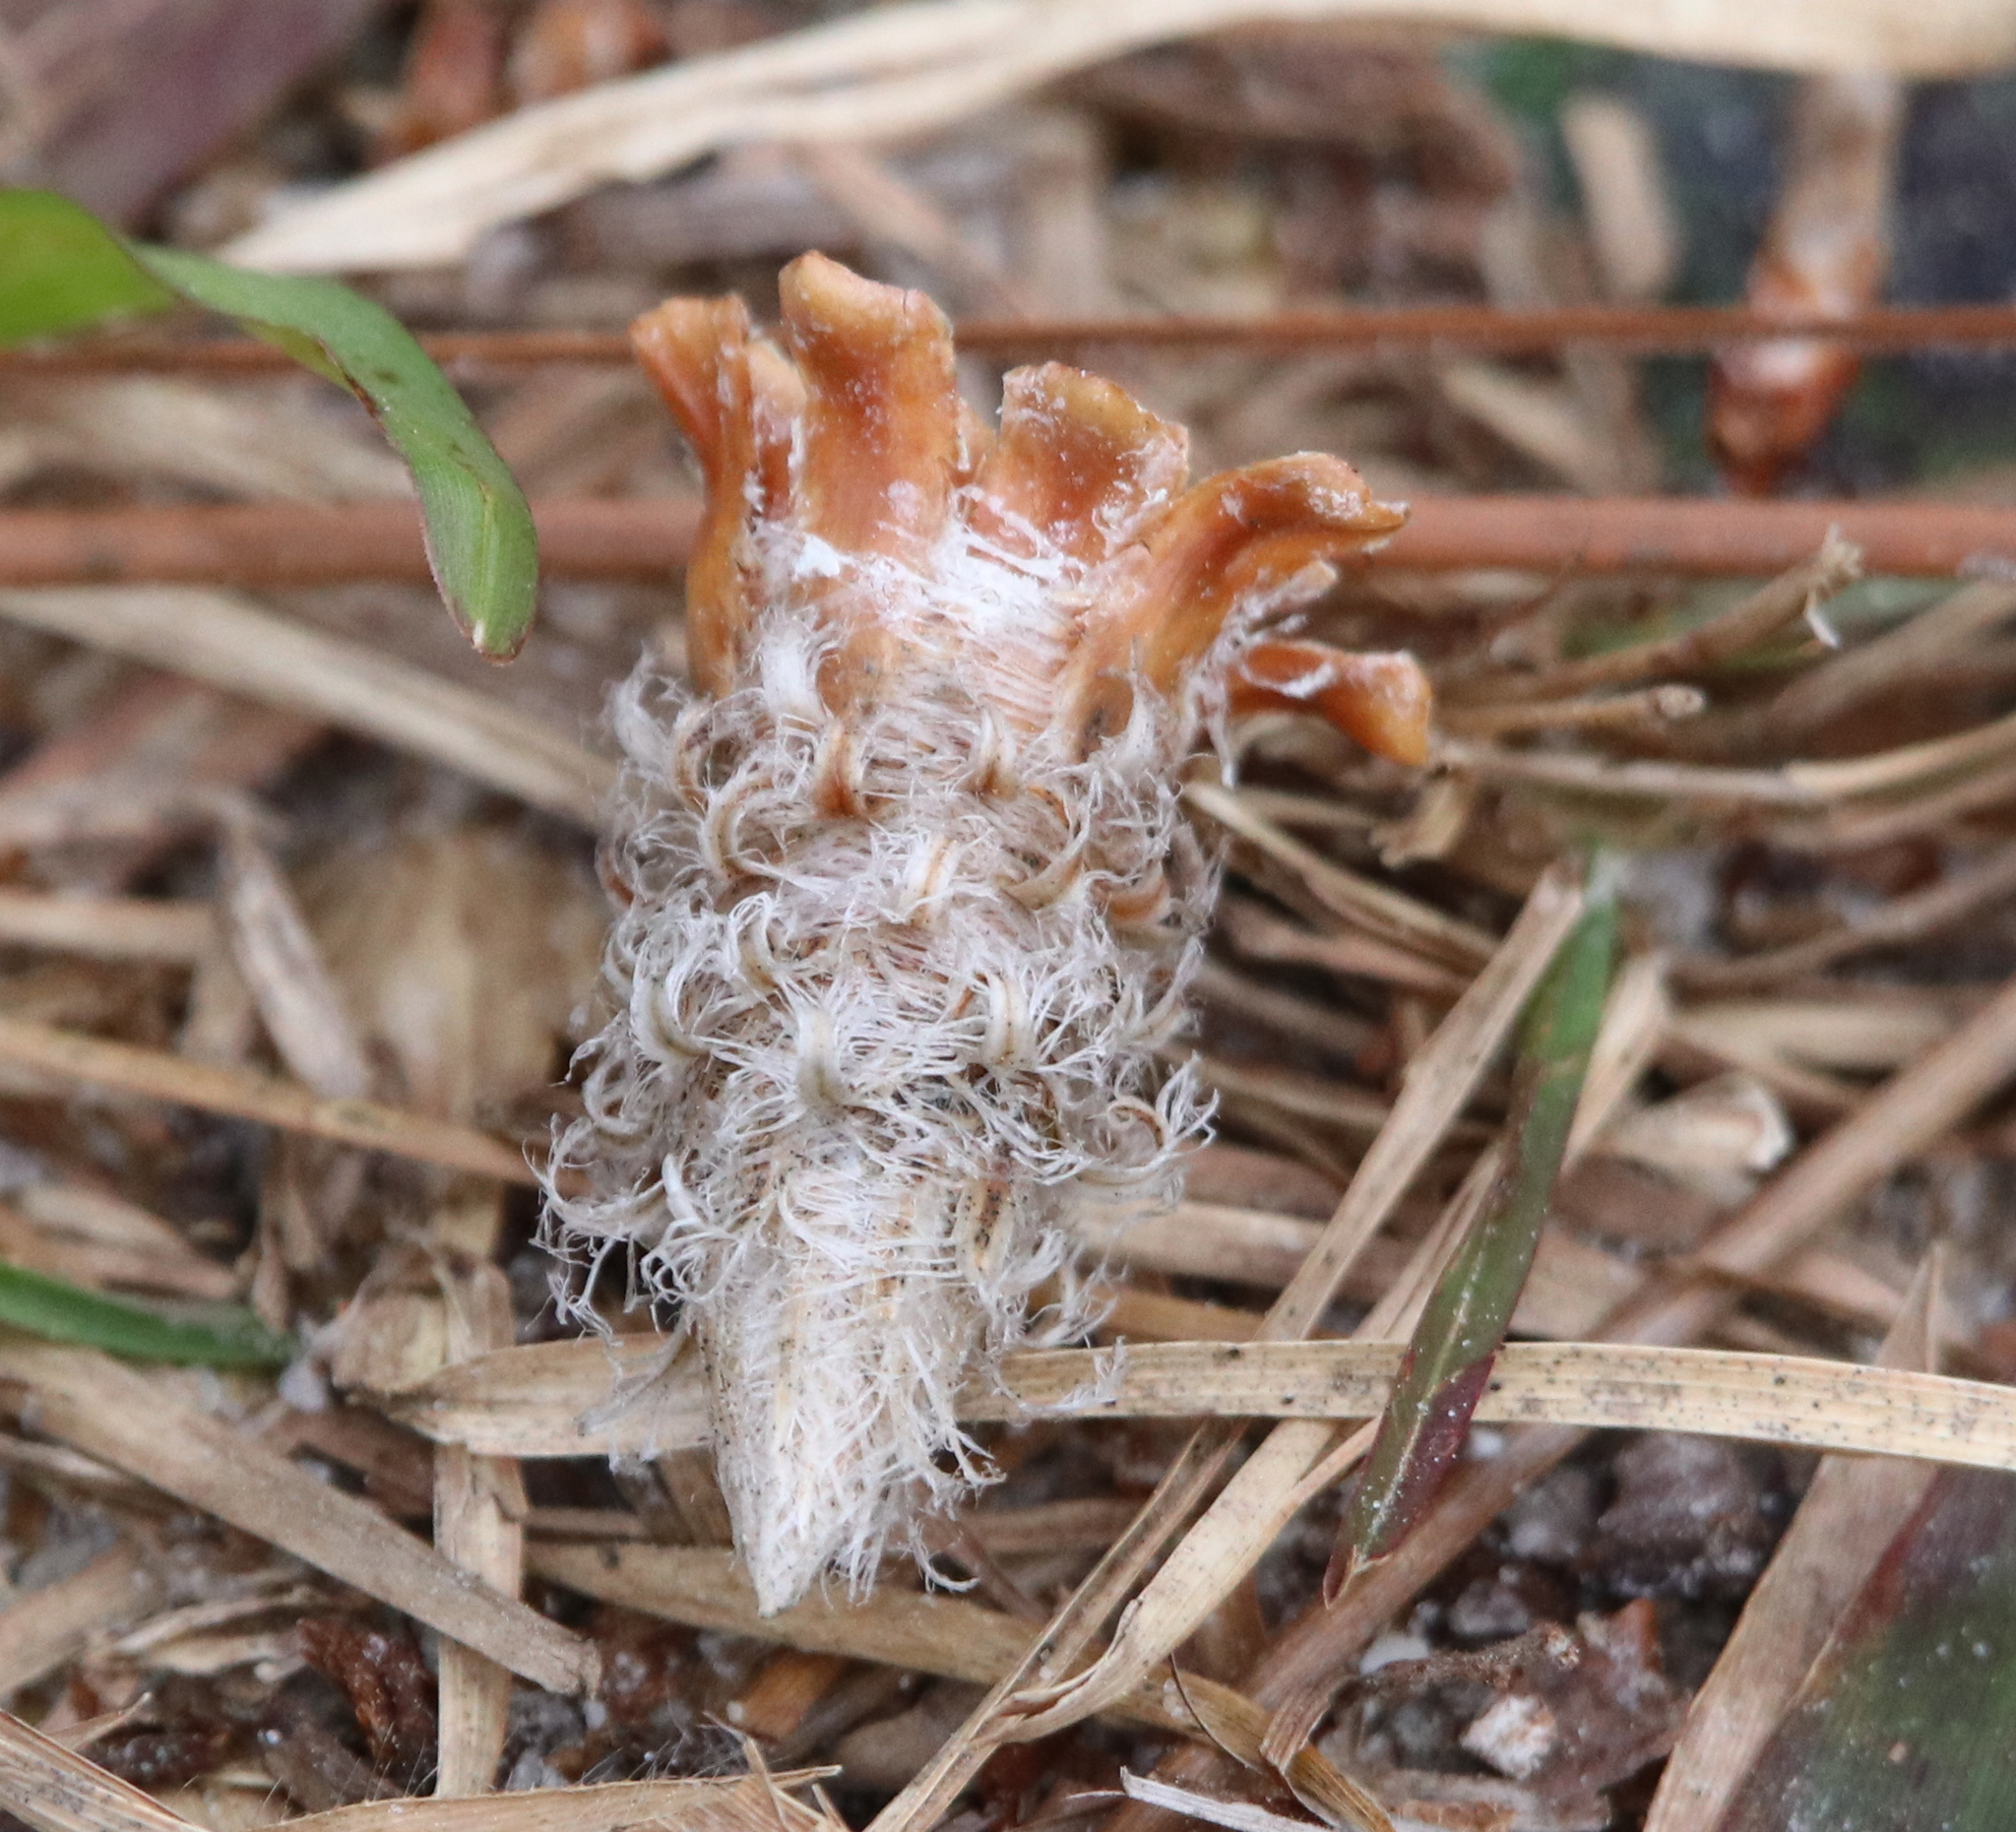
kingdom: Plantae
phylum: Tracheophyta
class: Pinopsida
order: Pinales
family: Pinaceae
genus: Pinus
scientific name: Pinus palustris
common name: Longleaf pine
